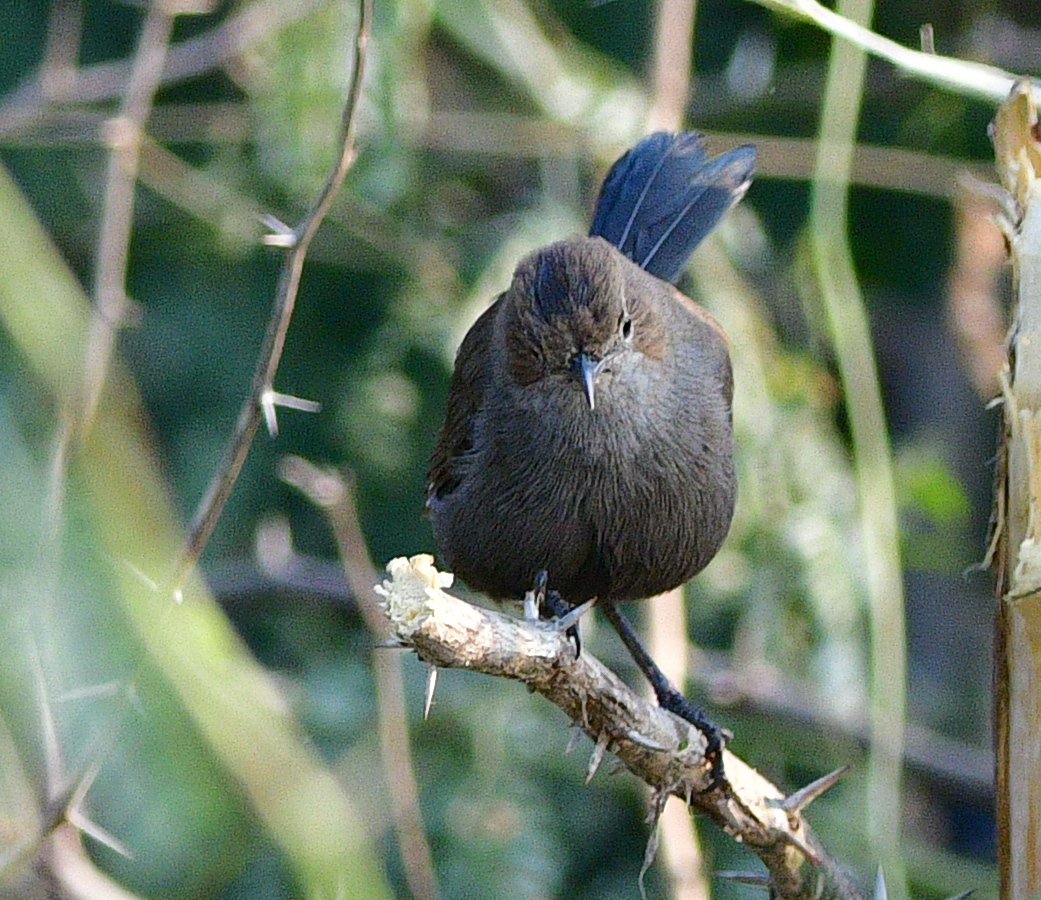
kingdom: Animalia
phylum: Chordata
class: Aves
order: Passeriformes
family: Muscicapidae
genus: Saxicoloides
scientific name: Saxicoloides fulicatus
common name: Indian robin
